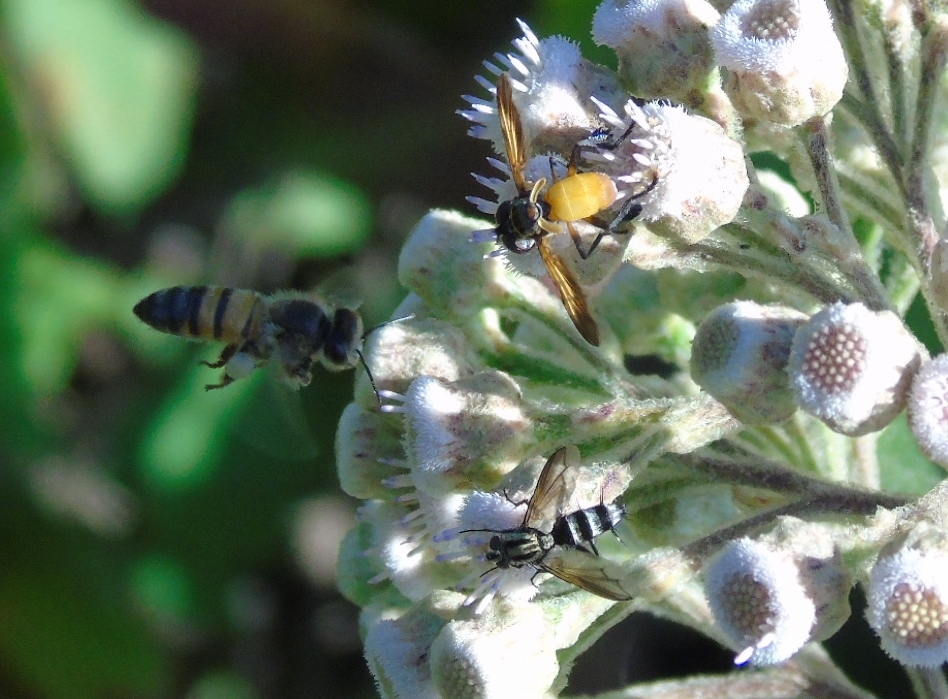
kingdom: Animalia
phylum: Arthropoda
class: Insecta
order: Hymenoptera
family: Apidae
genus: Apis
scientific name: Apis mellifera
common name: Honey bee
